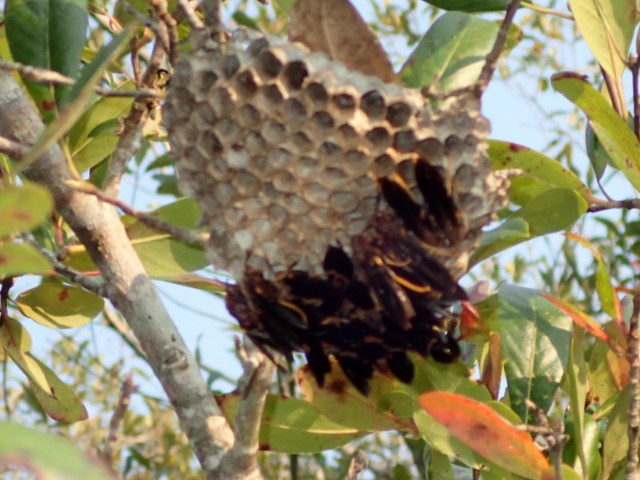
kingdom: Animalia
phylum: Arthropoda
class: Insecta
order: Hymenoptera
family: Eumenidae
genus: Polistes
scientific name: Polistes annularis
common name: Ringed paper wasp
